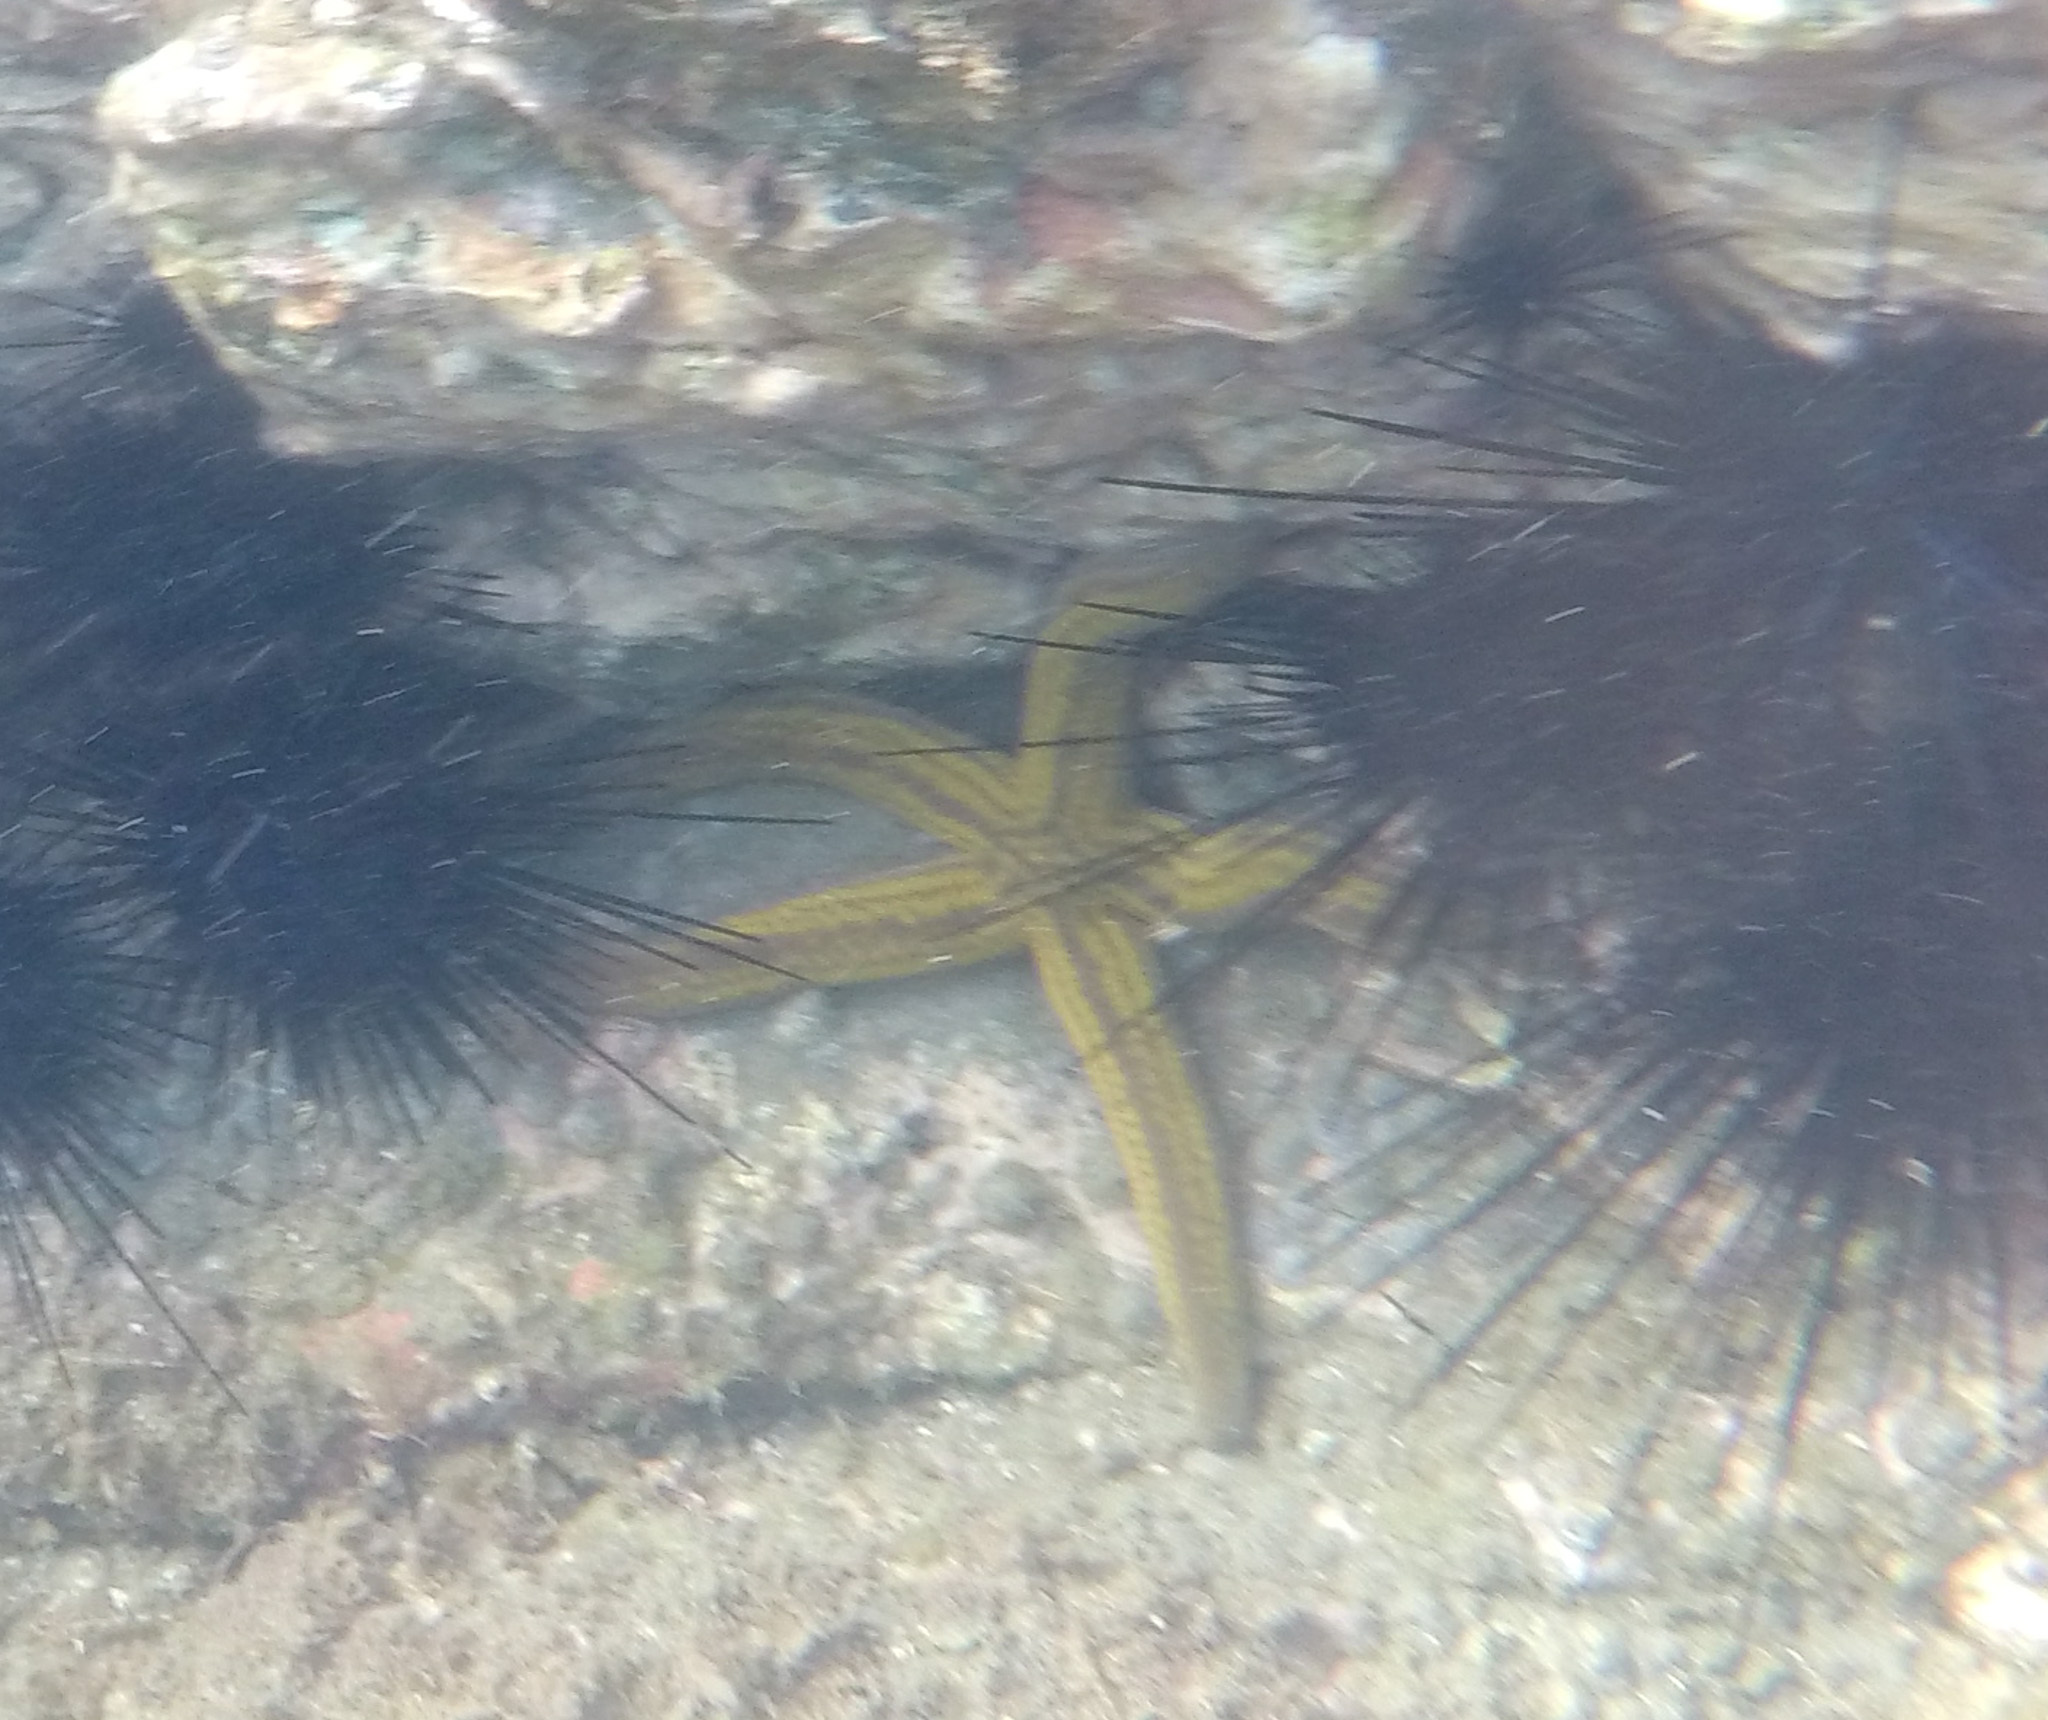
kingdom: Animalia
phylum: Echinodermata
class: Asteroidea
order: Valvatida
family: Ophidiasteridae
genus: Pharia
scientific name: Pharia pyramidata
